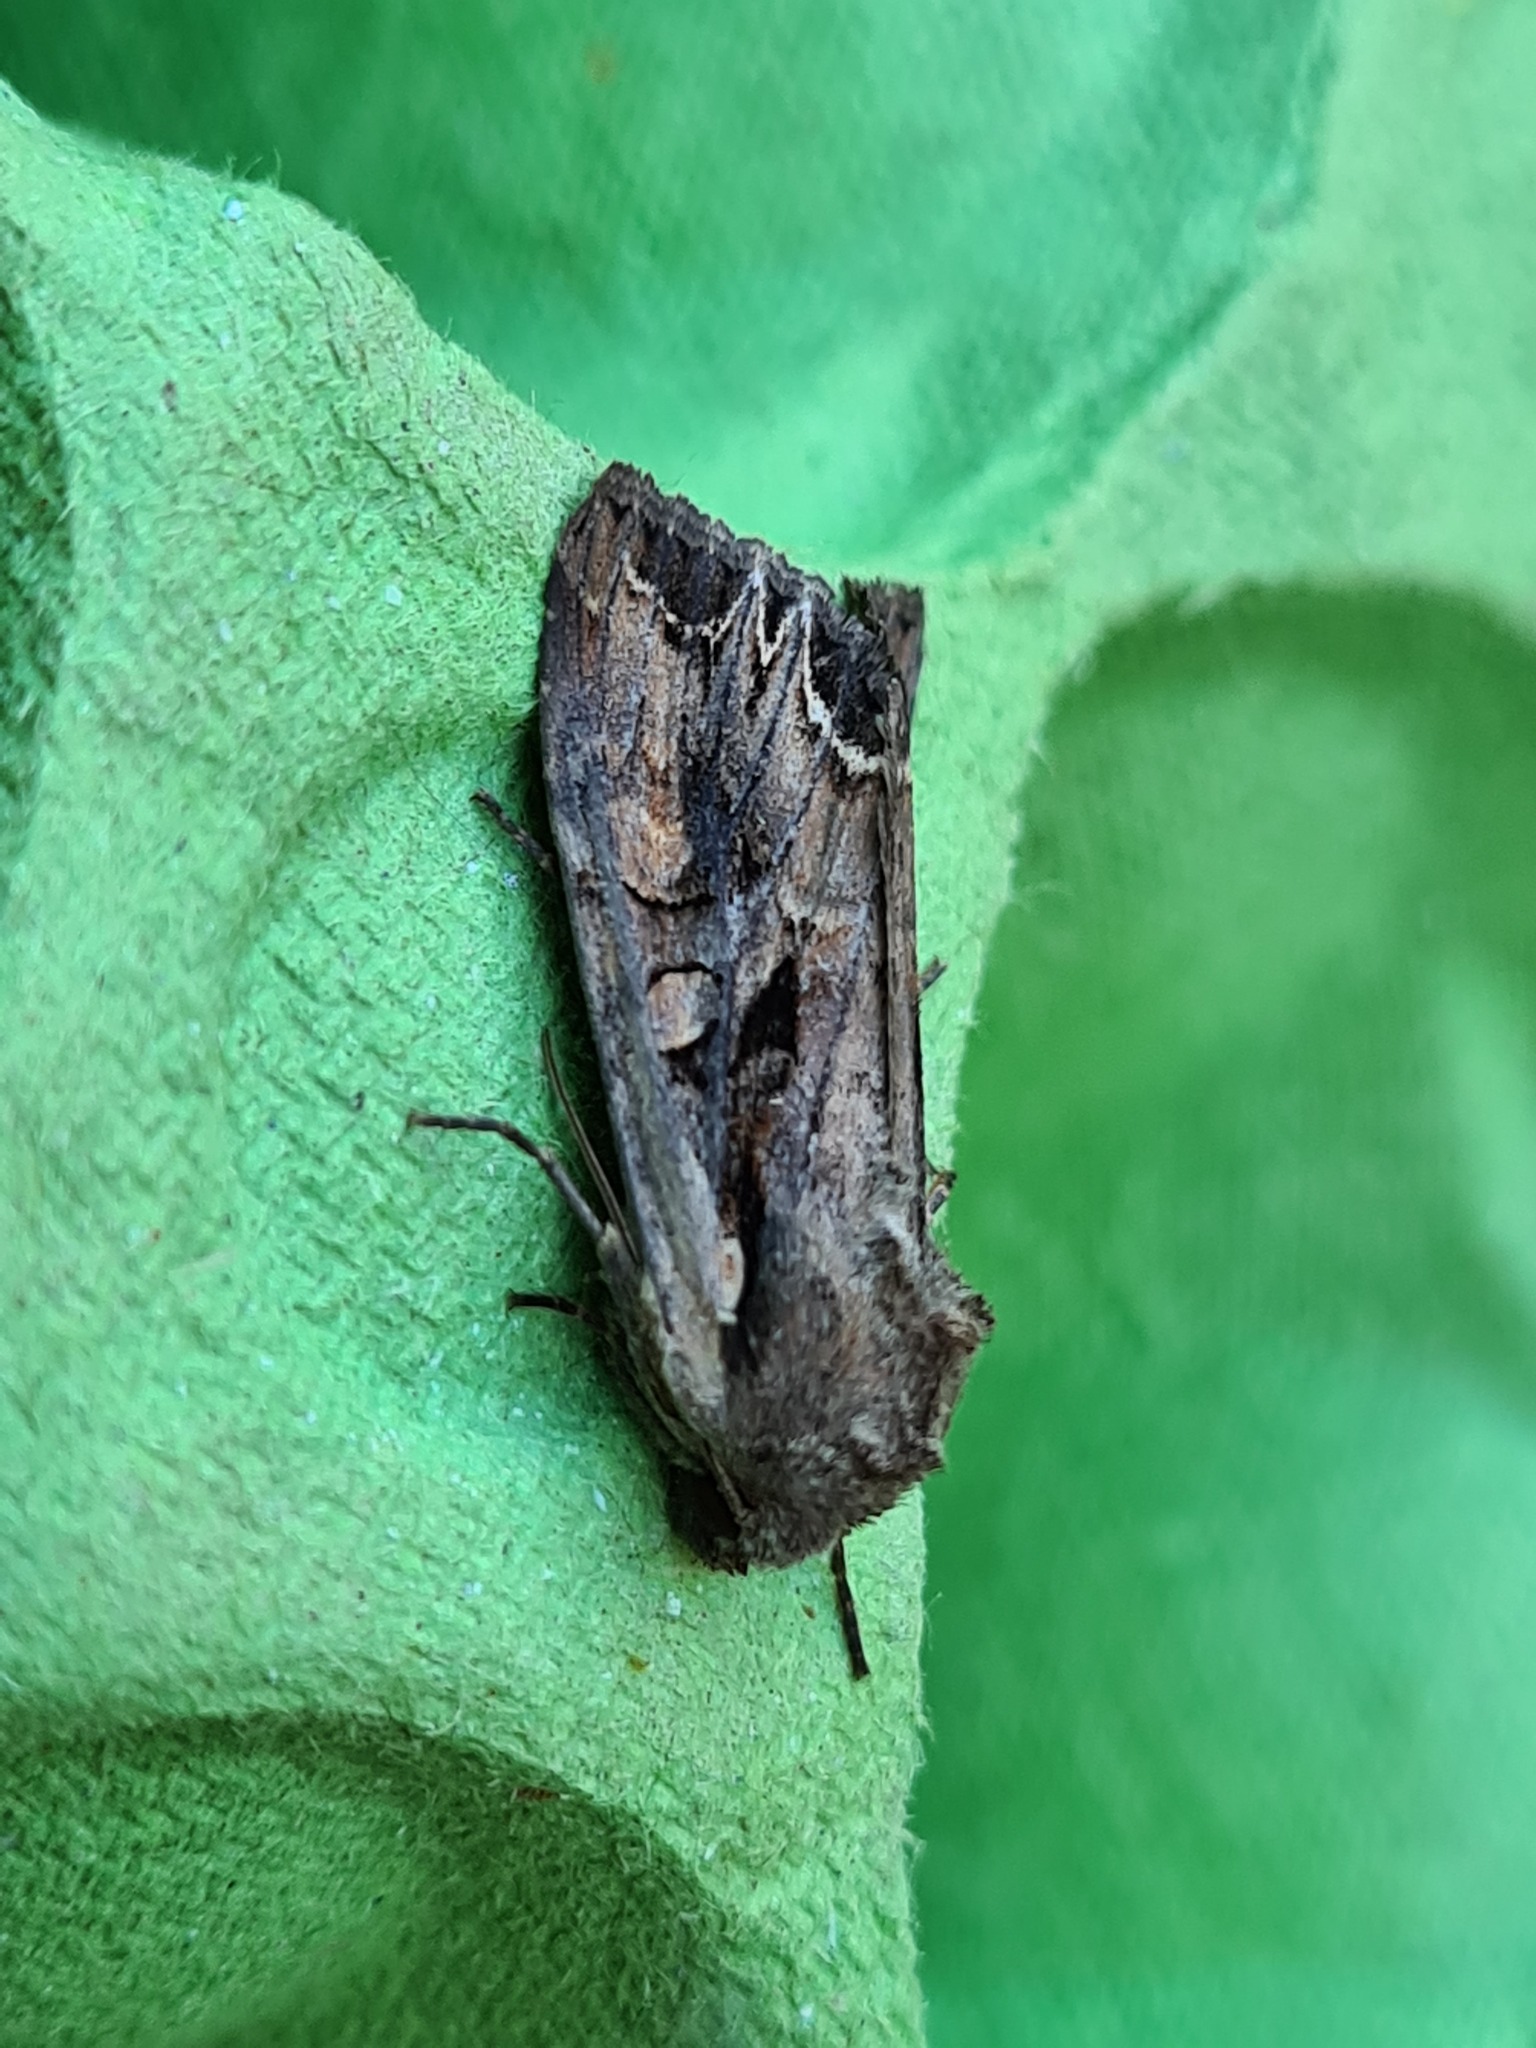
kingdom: Animalia
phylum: Arthropoda
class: Insecta
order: Lepidoptera
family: Noctuidae
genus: Lacanobia
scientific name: Lacanobia suasa
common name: Dog's tooth
